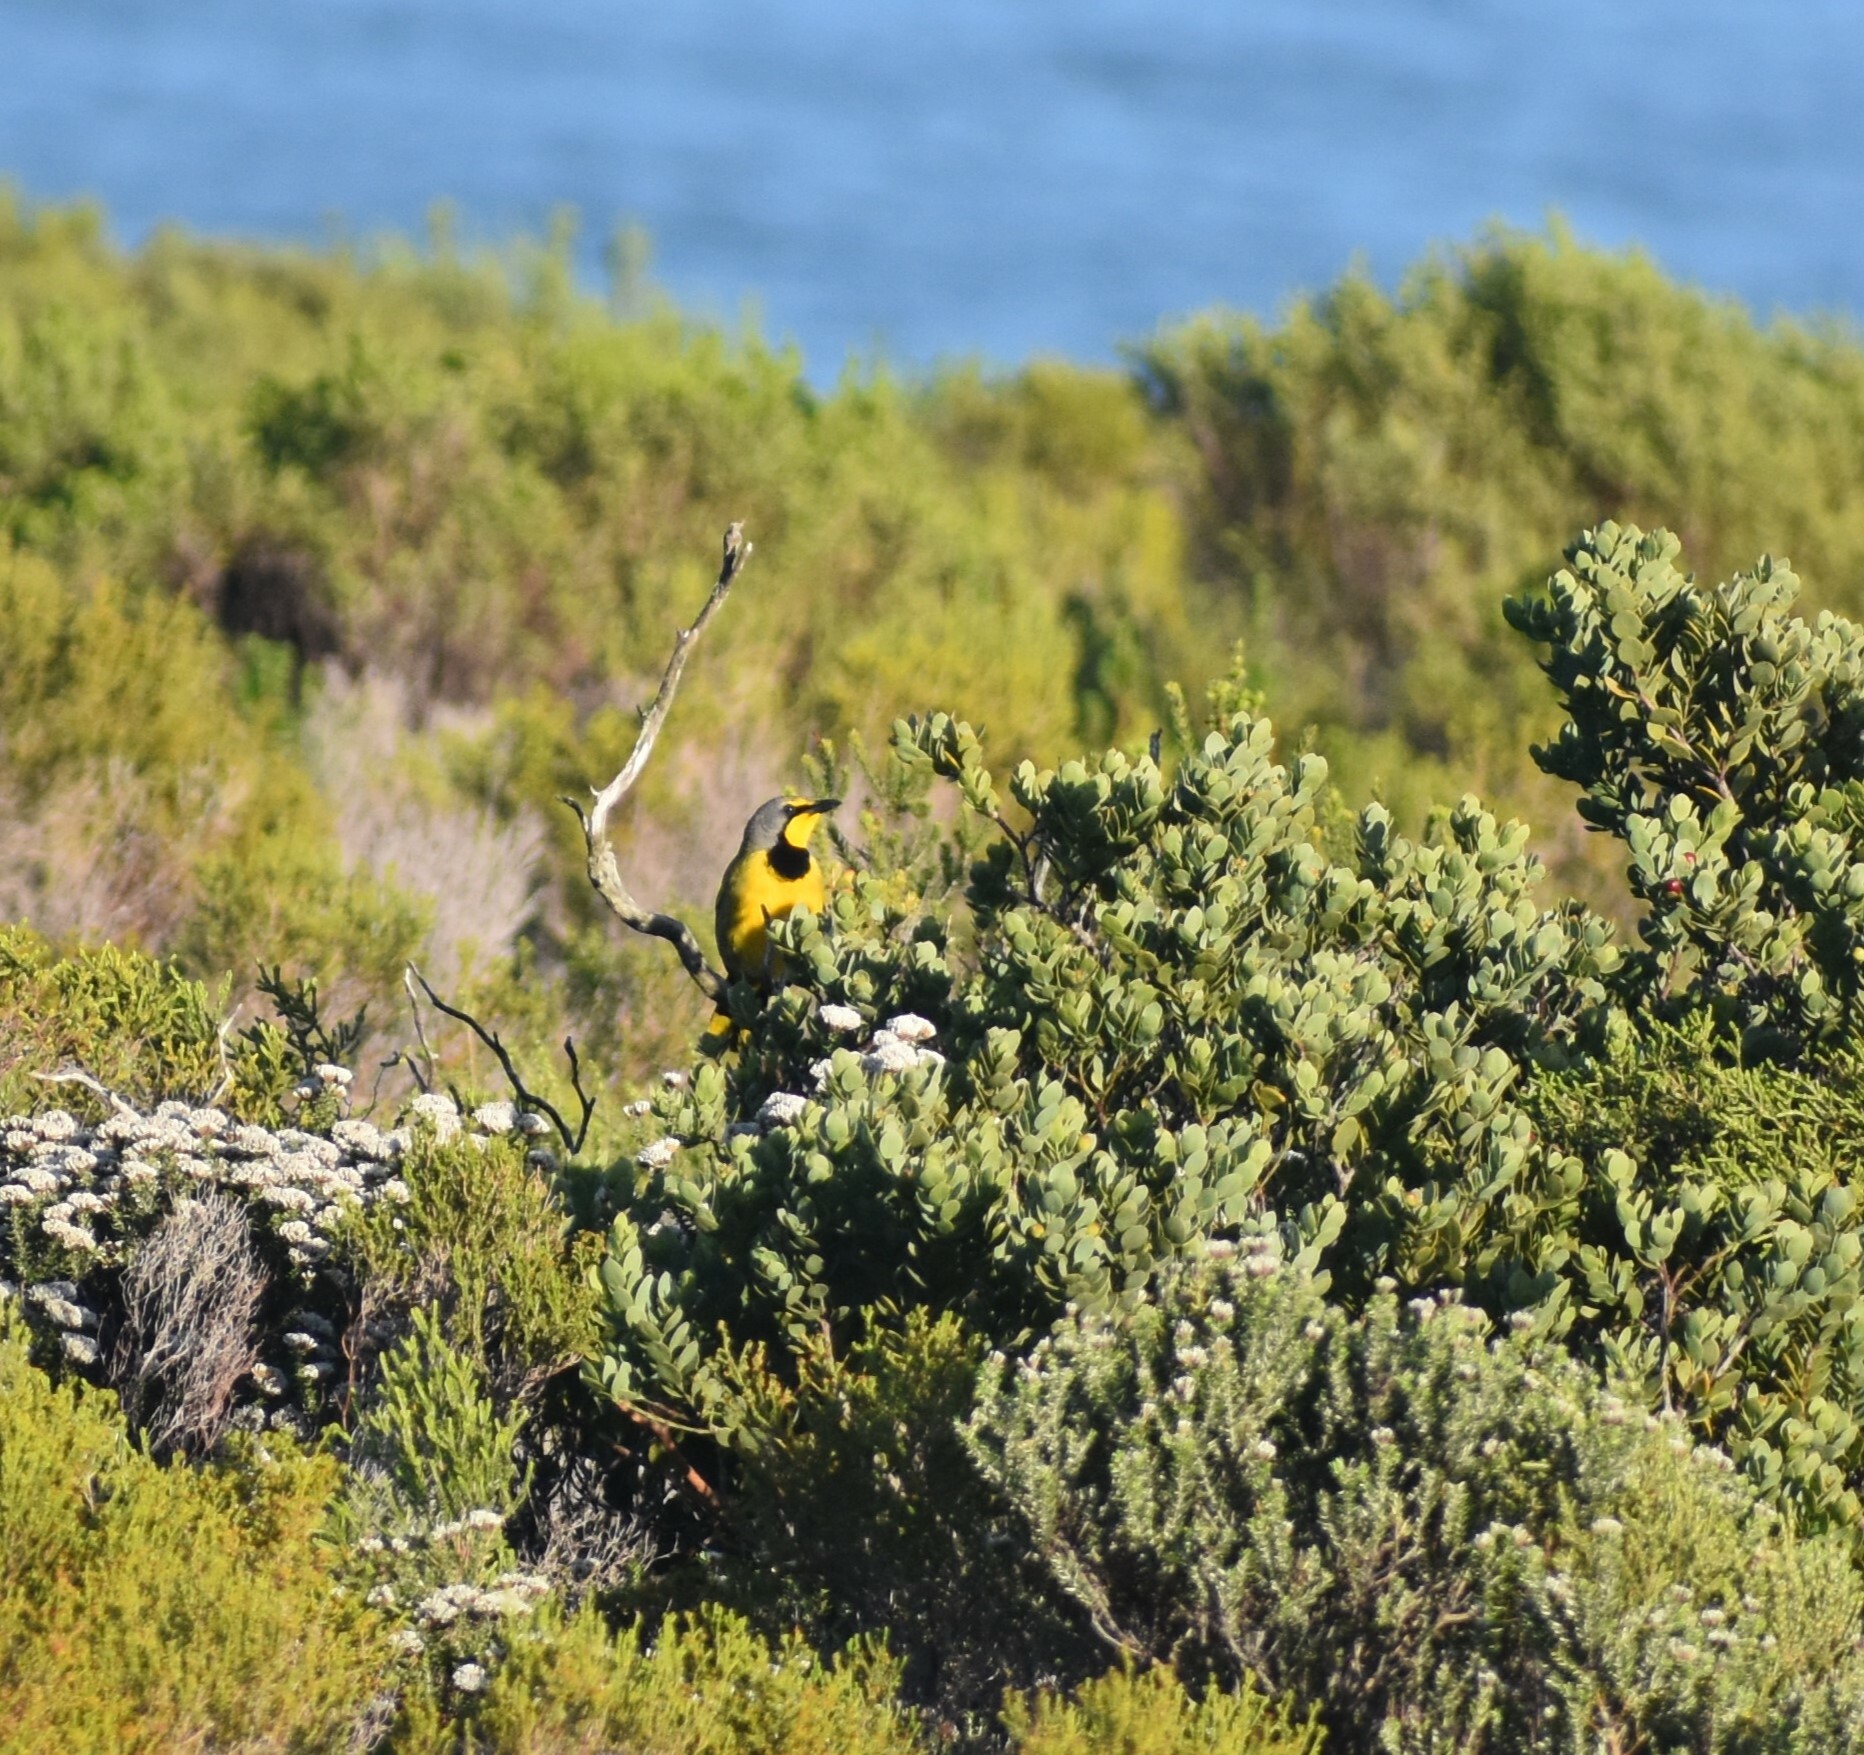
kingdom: Animalia
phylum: Chordata
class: Aves
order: Passeriformes
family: Malaconotidae
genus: Telophorus
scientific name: Telophorus zeylonus
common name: Bokmakierie
